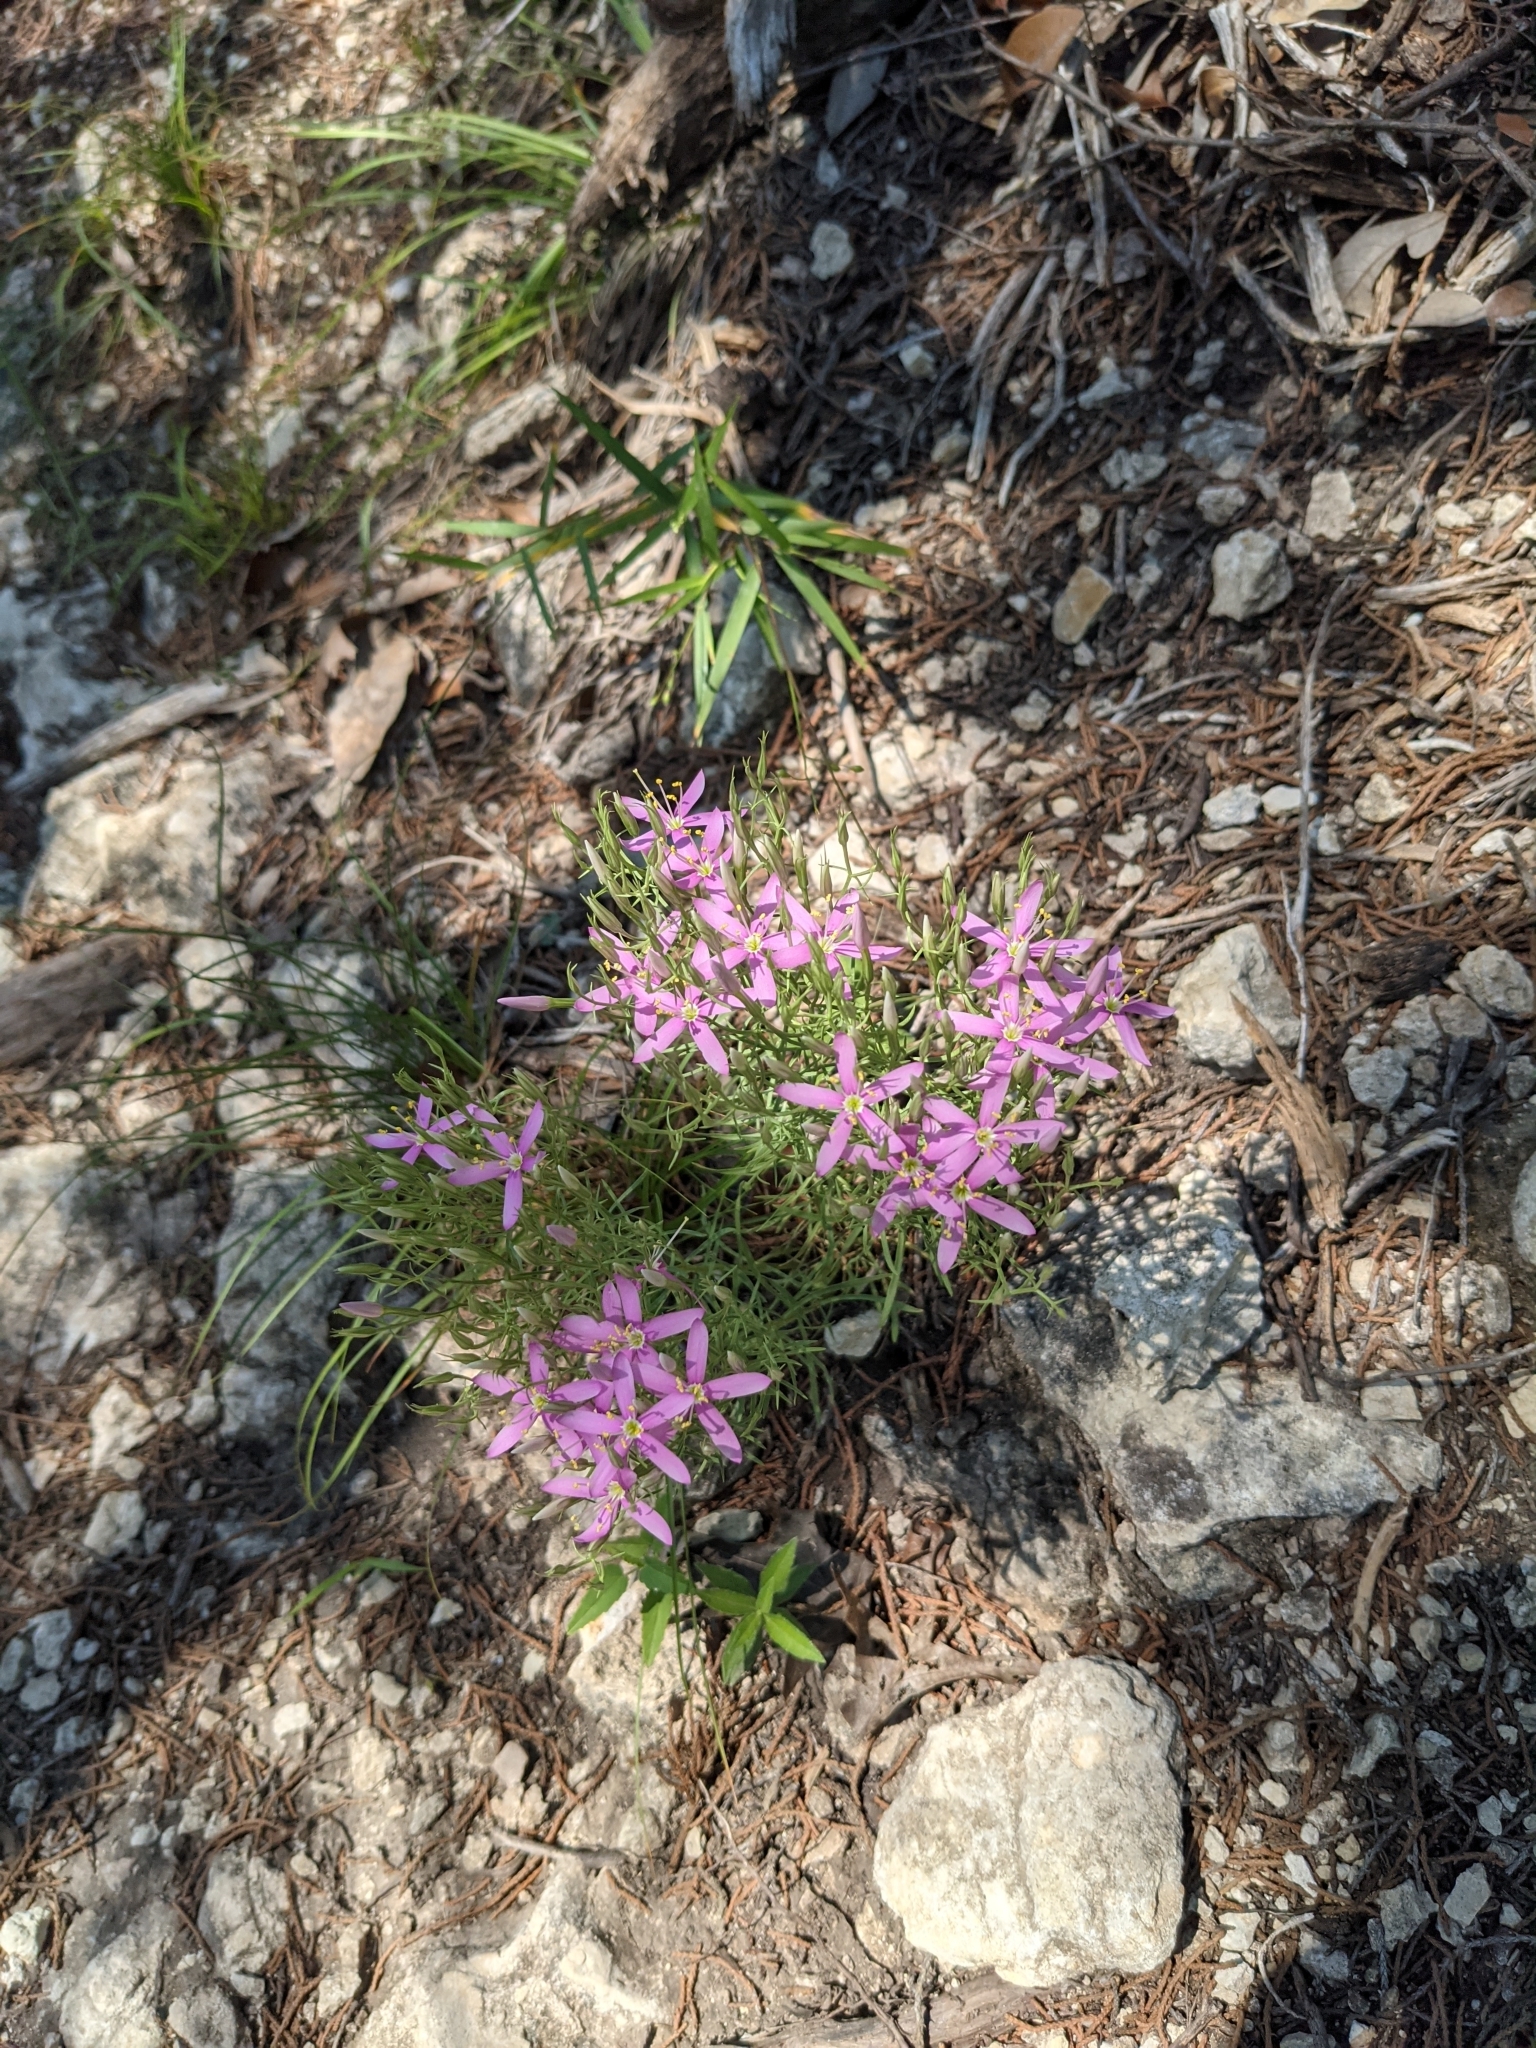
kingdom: Plantae
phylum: Tracheophyta
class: Magnoliopsida
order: Gentianales
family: Gentianaceae
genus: Zeltnera
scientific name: Zeltnera beyrichii
